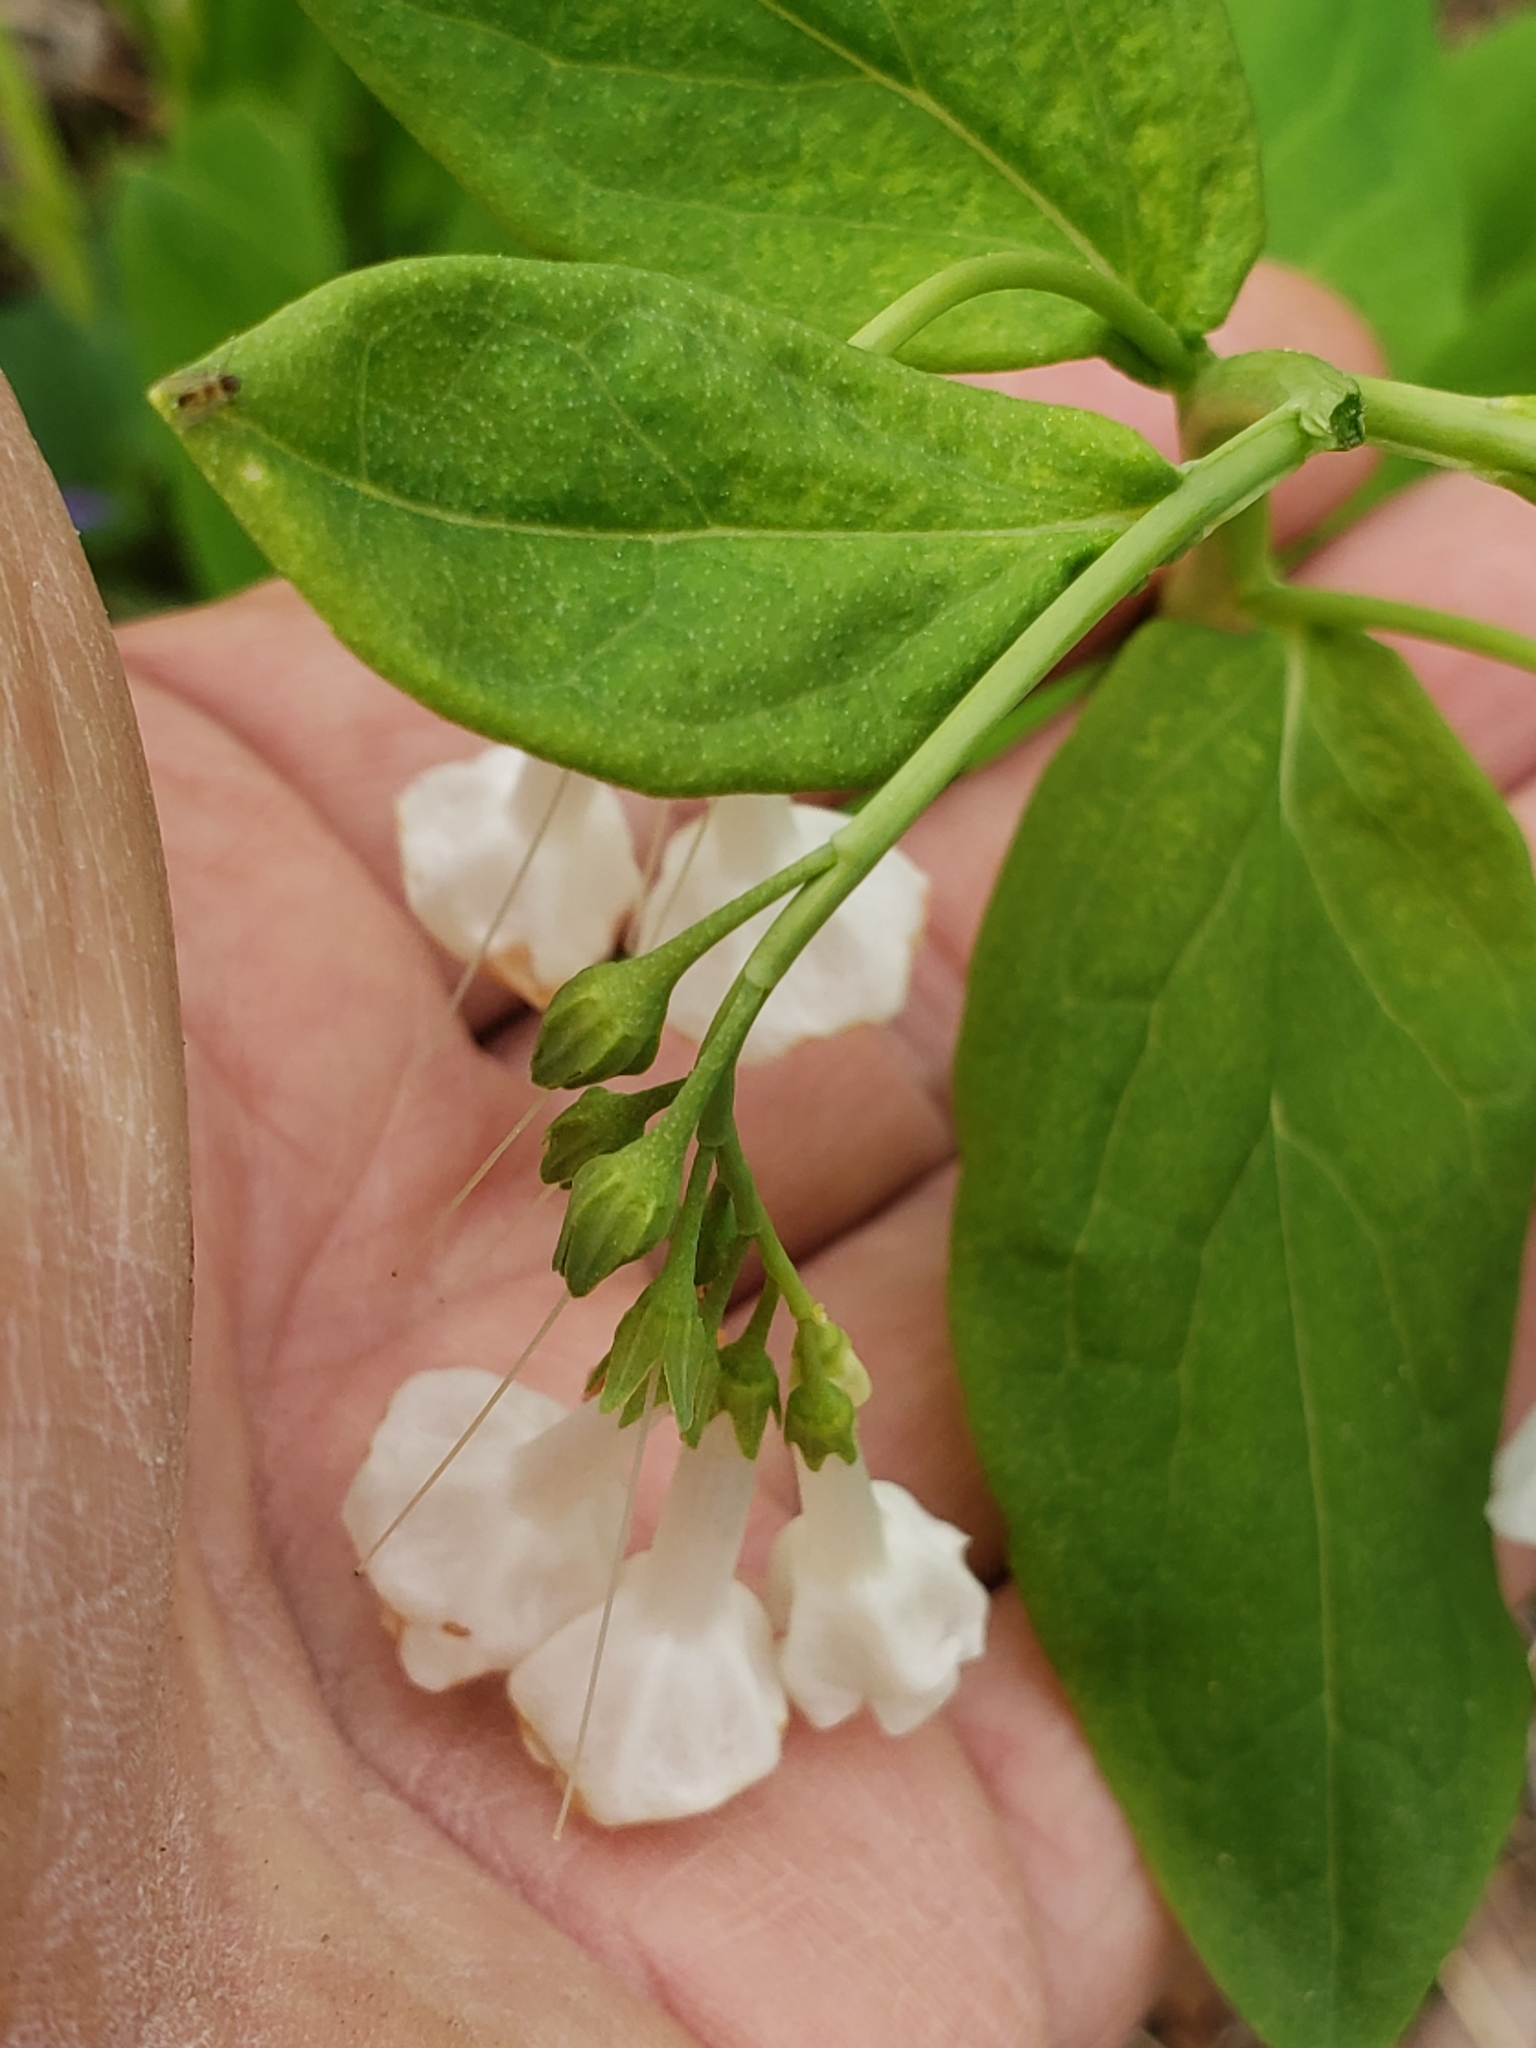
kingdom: Plantae
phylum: Tracheophyta
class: Magnoliopsida
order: Boraginales
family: Boraginaceae
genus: Mertensia
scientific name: Mertensia virginica
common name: Virginia bluebells
